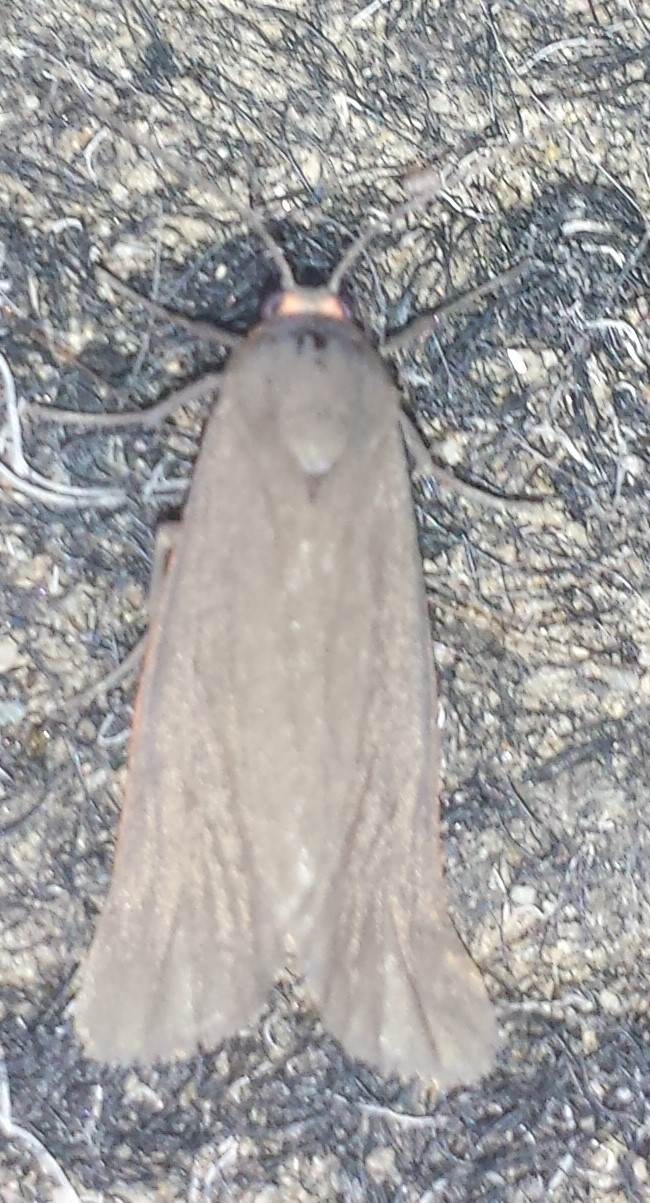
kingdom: Animalia
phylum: Arthropoda
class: Insecta
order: Lepidoptera
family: Erebidae
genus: Virbia
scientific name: Virbia laeta
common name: Joyful holomelina moth
